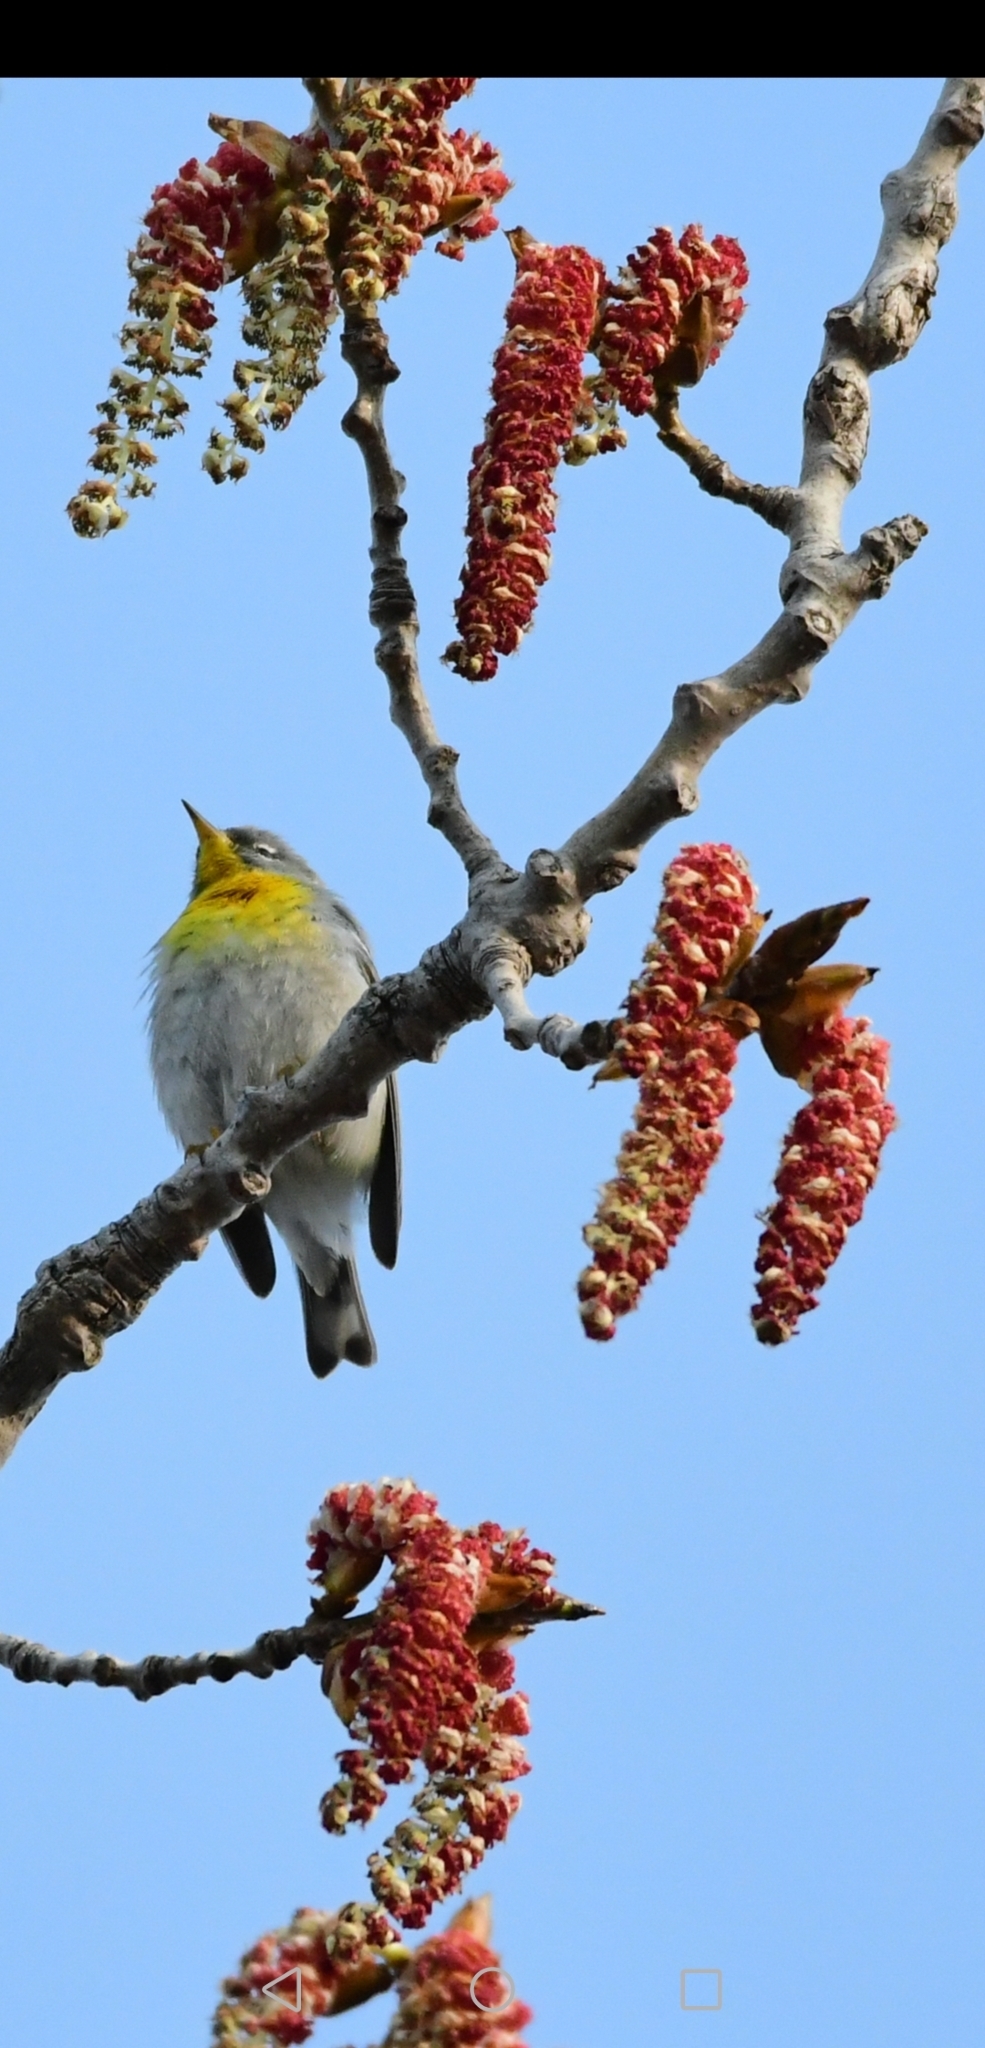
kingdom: Animalia
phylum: Chordata
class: Aves
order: Passeriformes
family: Parulidae
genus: Setophaga
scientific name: Setophaga americana
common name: Northern parula
